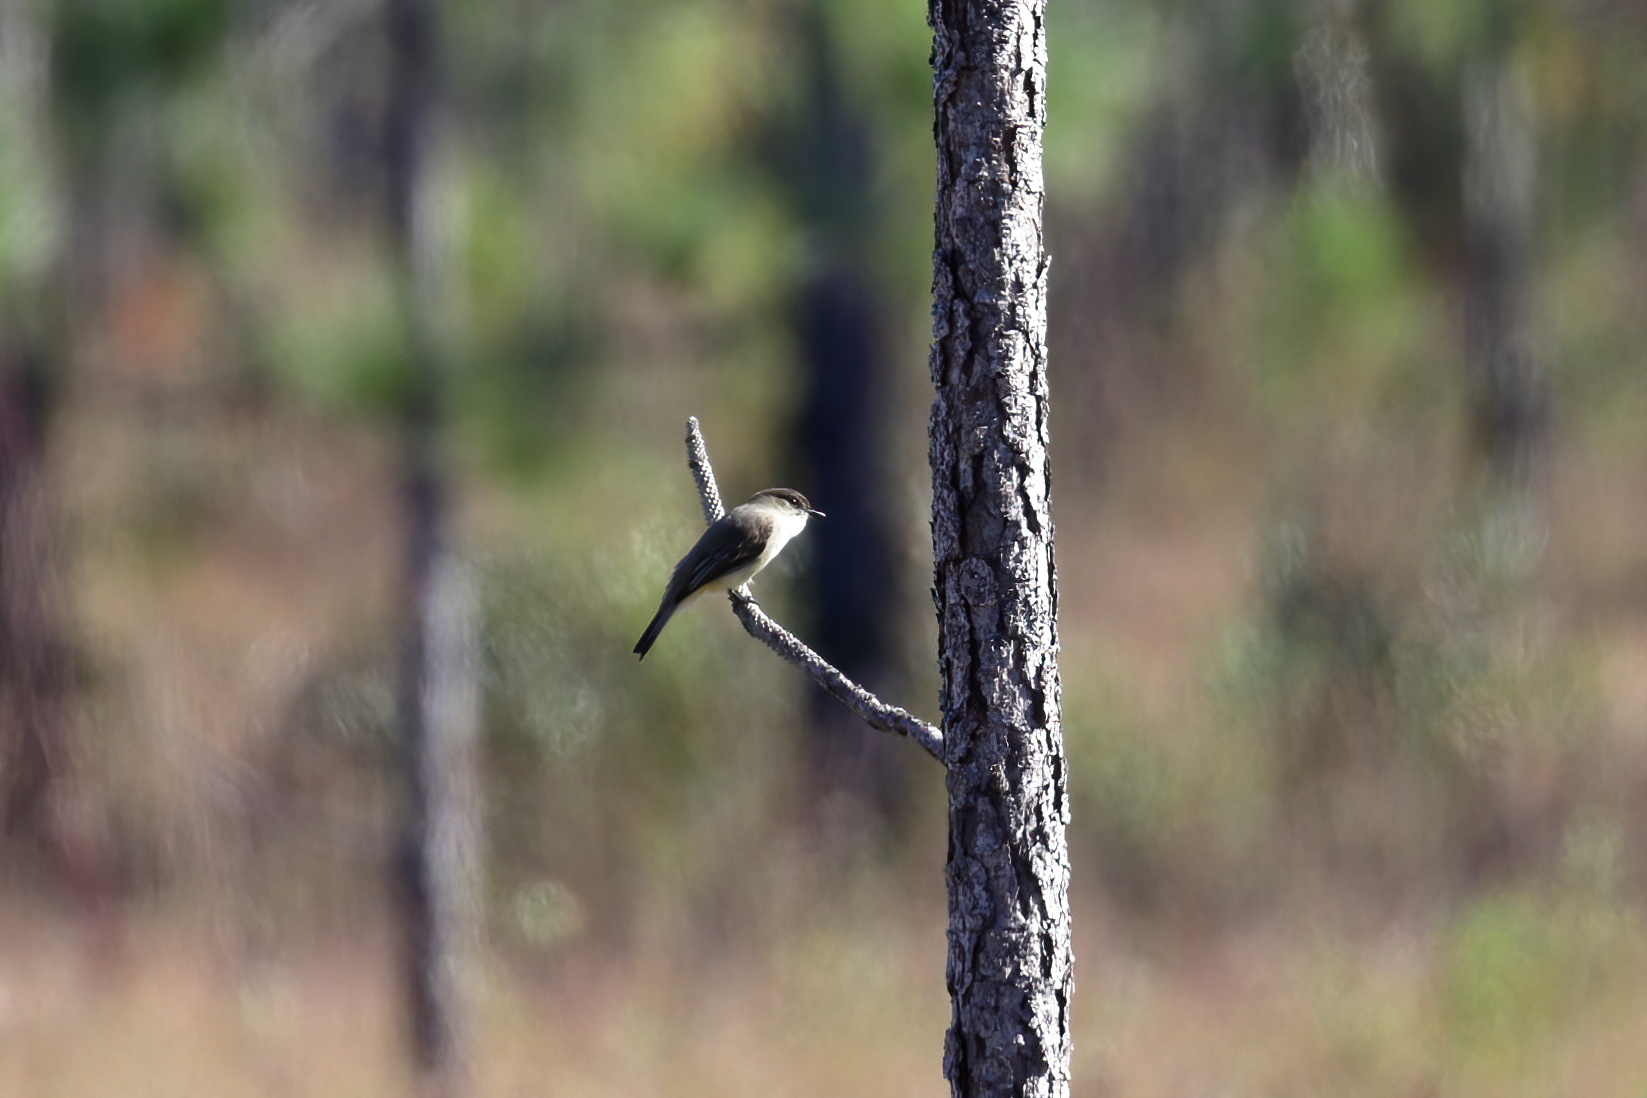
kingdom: Animalia
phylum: Chordata
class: Aves
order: Passeriformes
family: Tyrannidae
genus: Sayornis
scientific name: Sayornis phoebe
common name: Eastern phoebe
